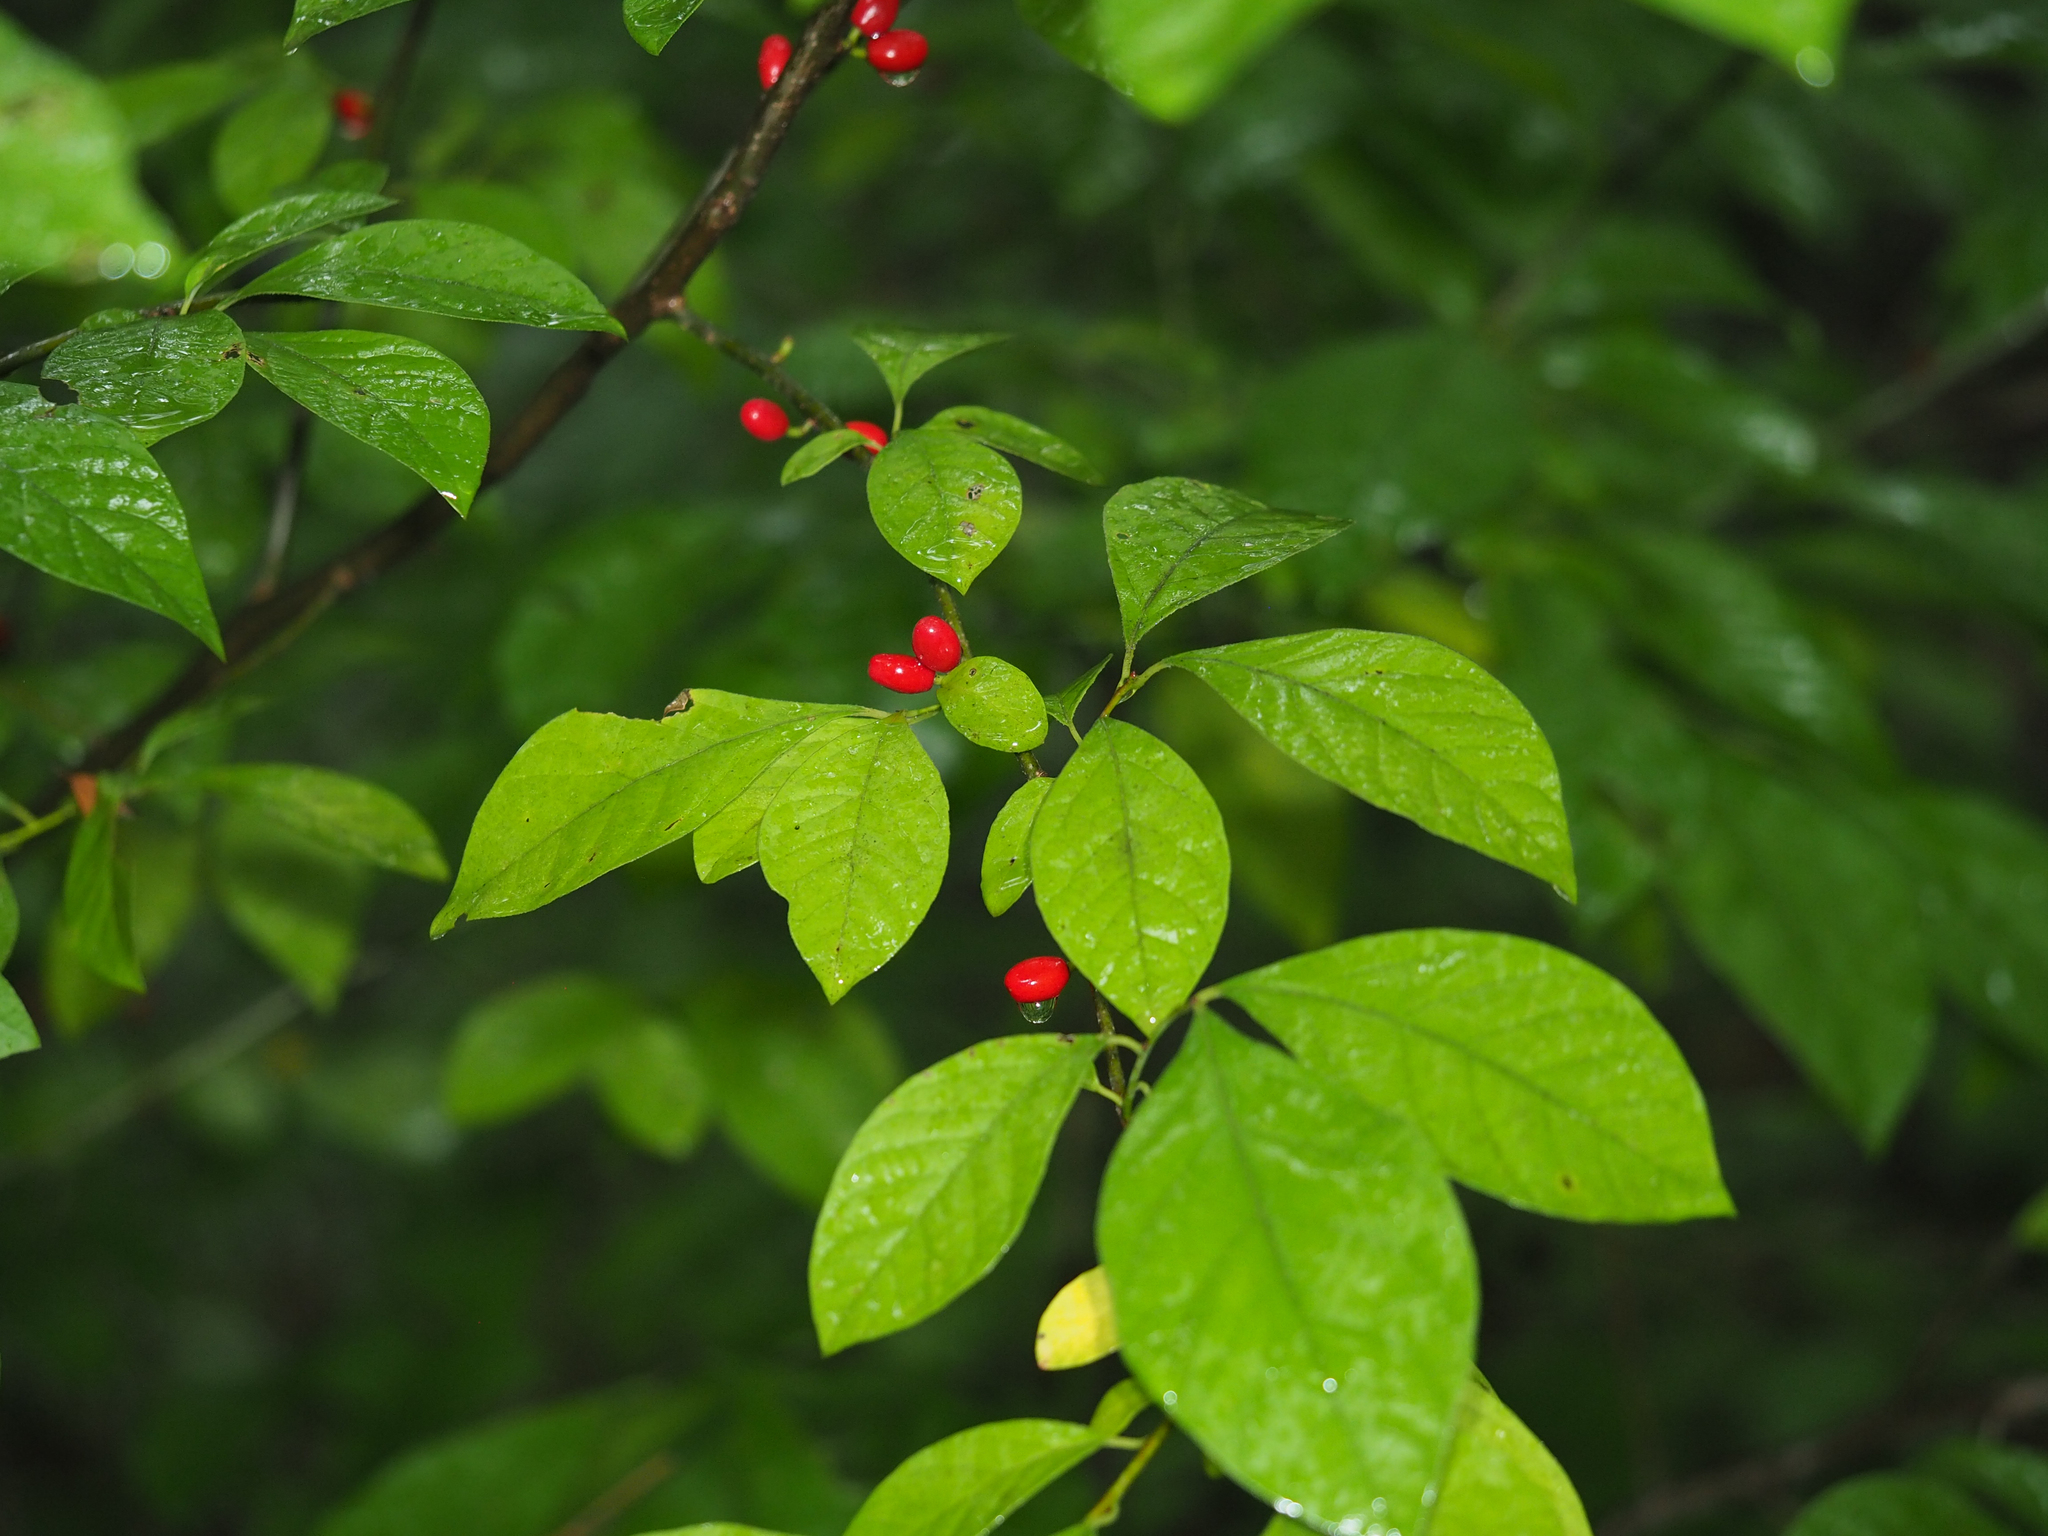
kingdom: Plantae
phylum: Tracheophyta
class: Magnoliopsida
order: Laurales
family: Lauraceae
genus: Lindera
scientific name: Lindera benzoin
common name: Spicebush
